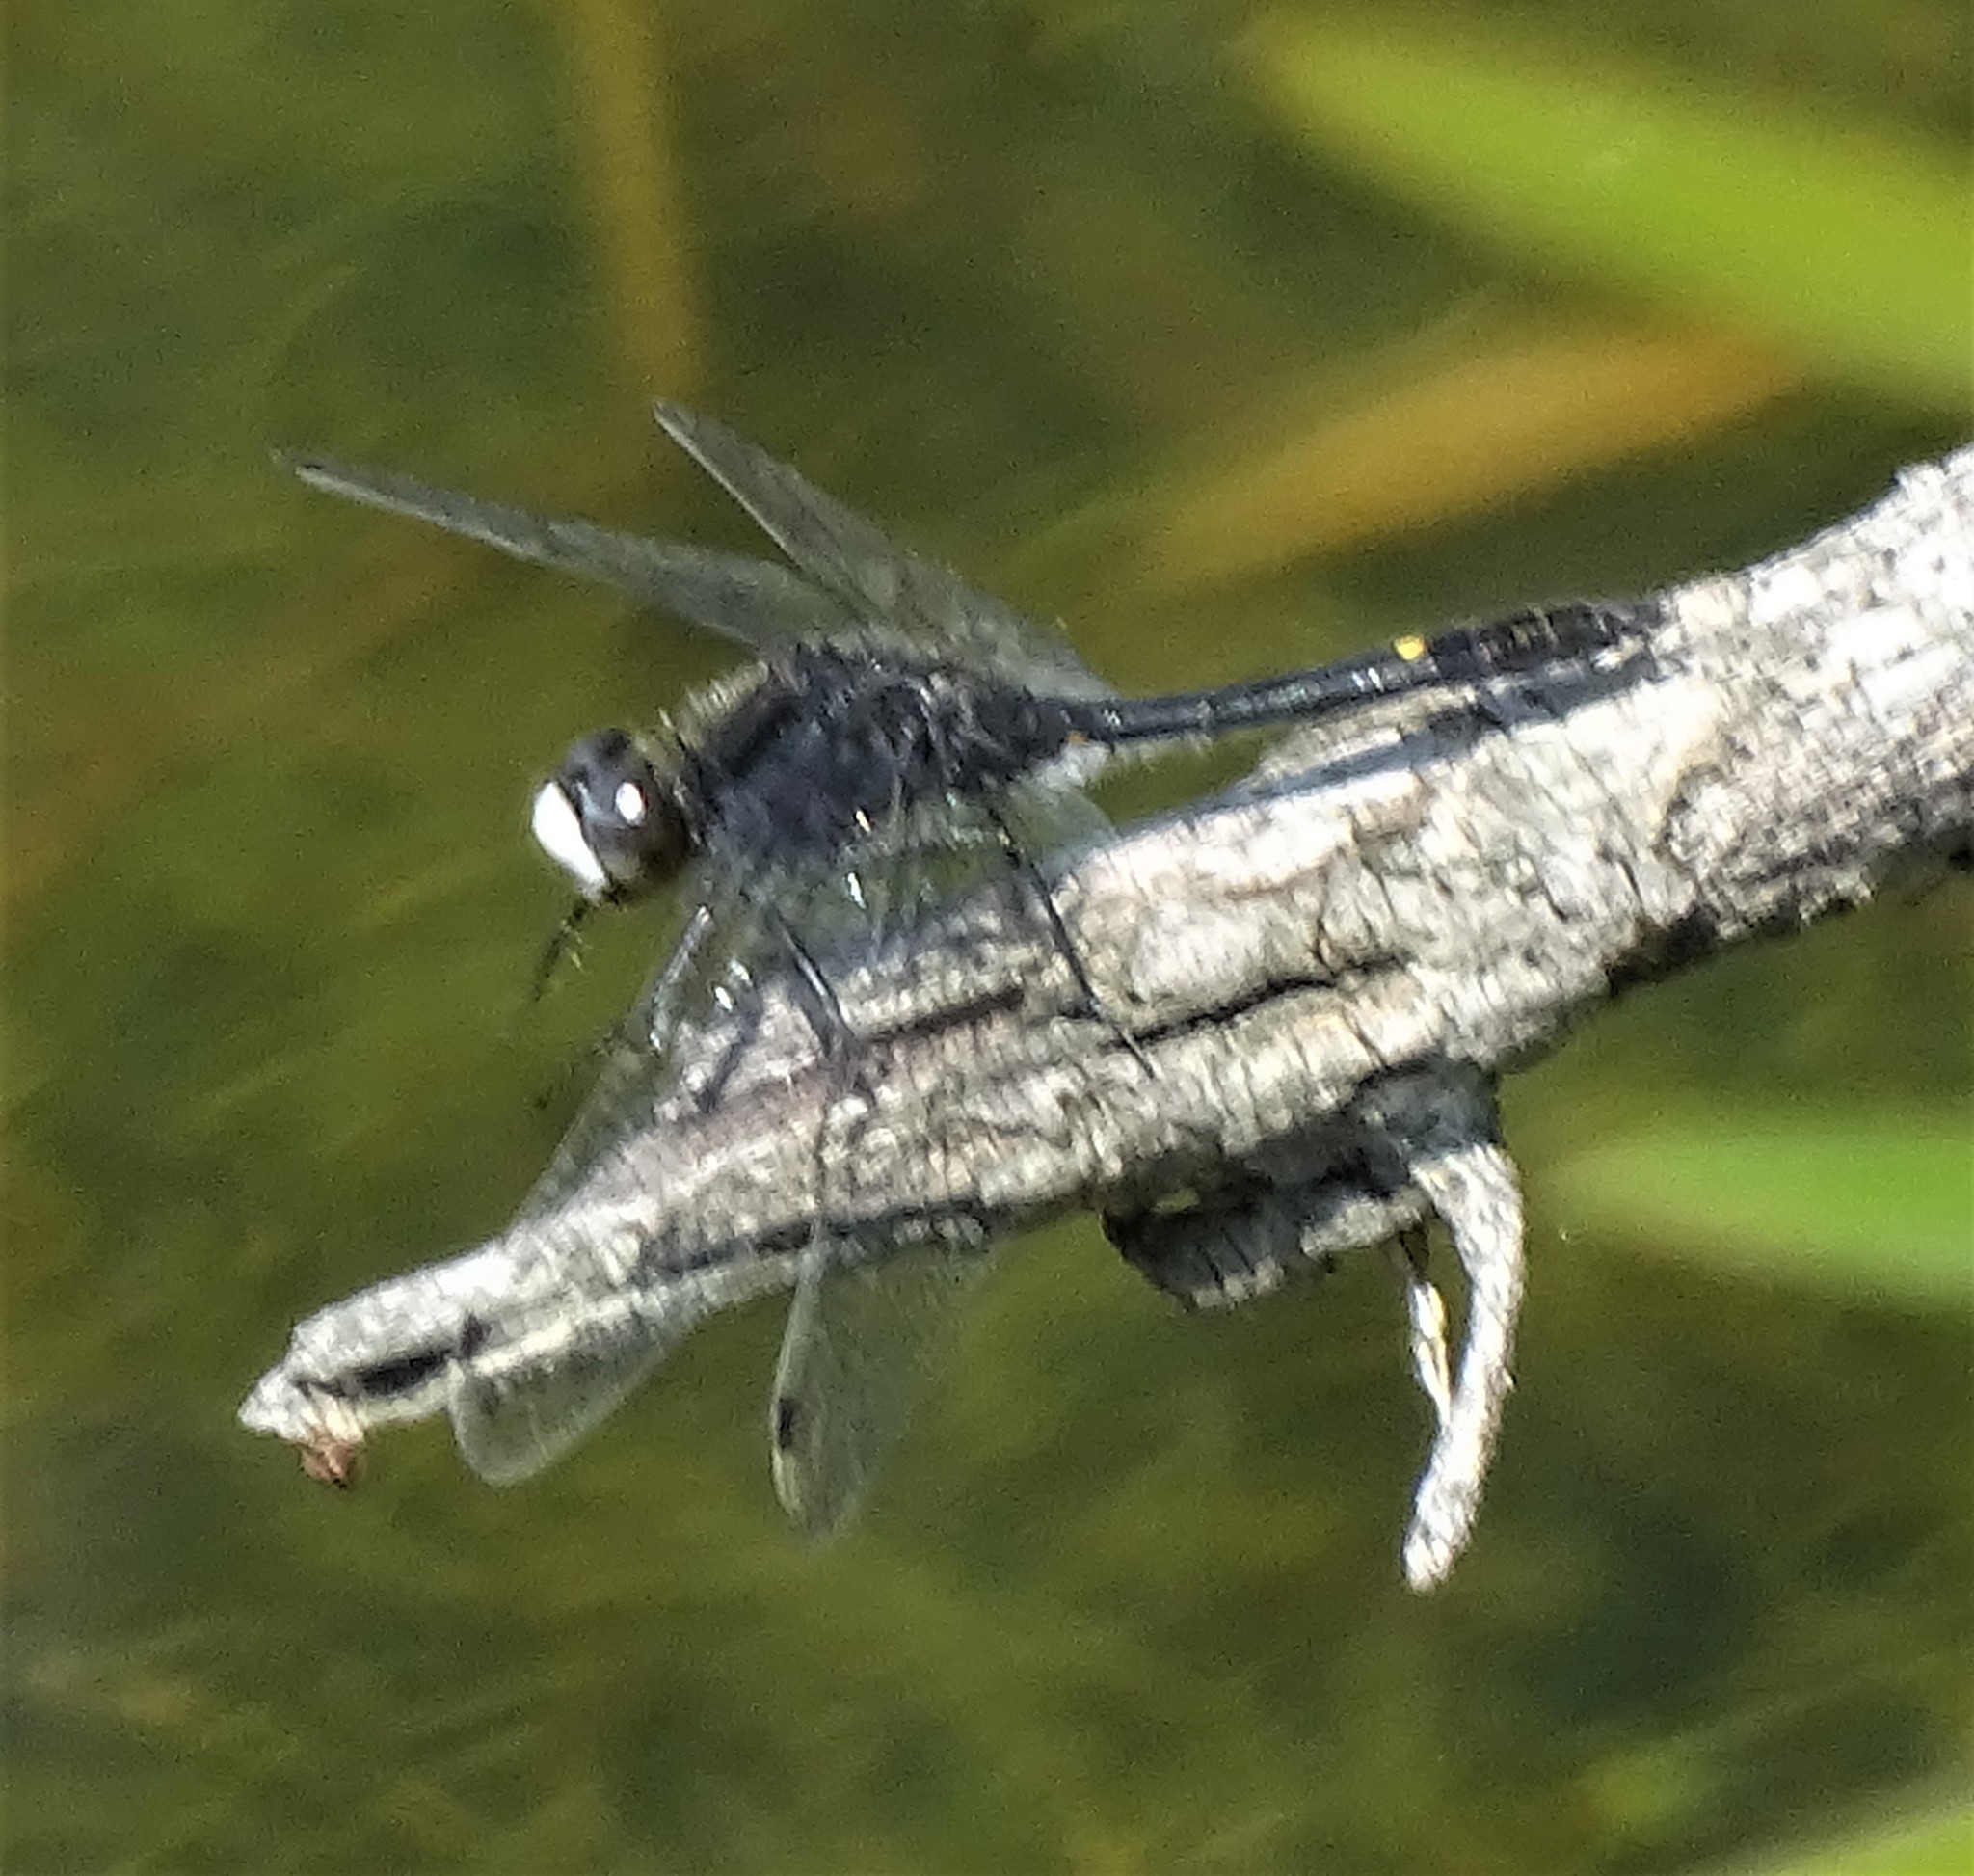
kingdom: Animalia
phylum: Arthropoda
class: Insecta
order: Odonata
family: Libellulidae
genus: Leucorrhinia
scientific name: Leucorrhinia intacta
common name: Dot-tailed whiteface
